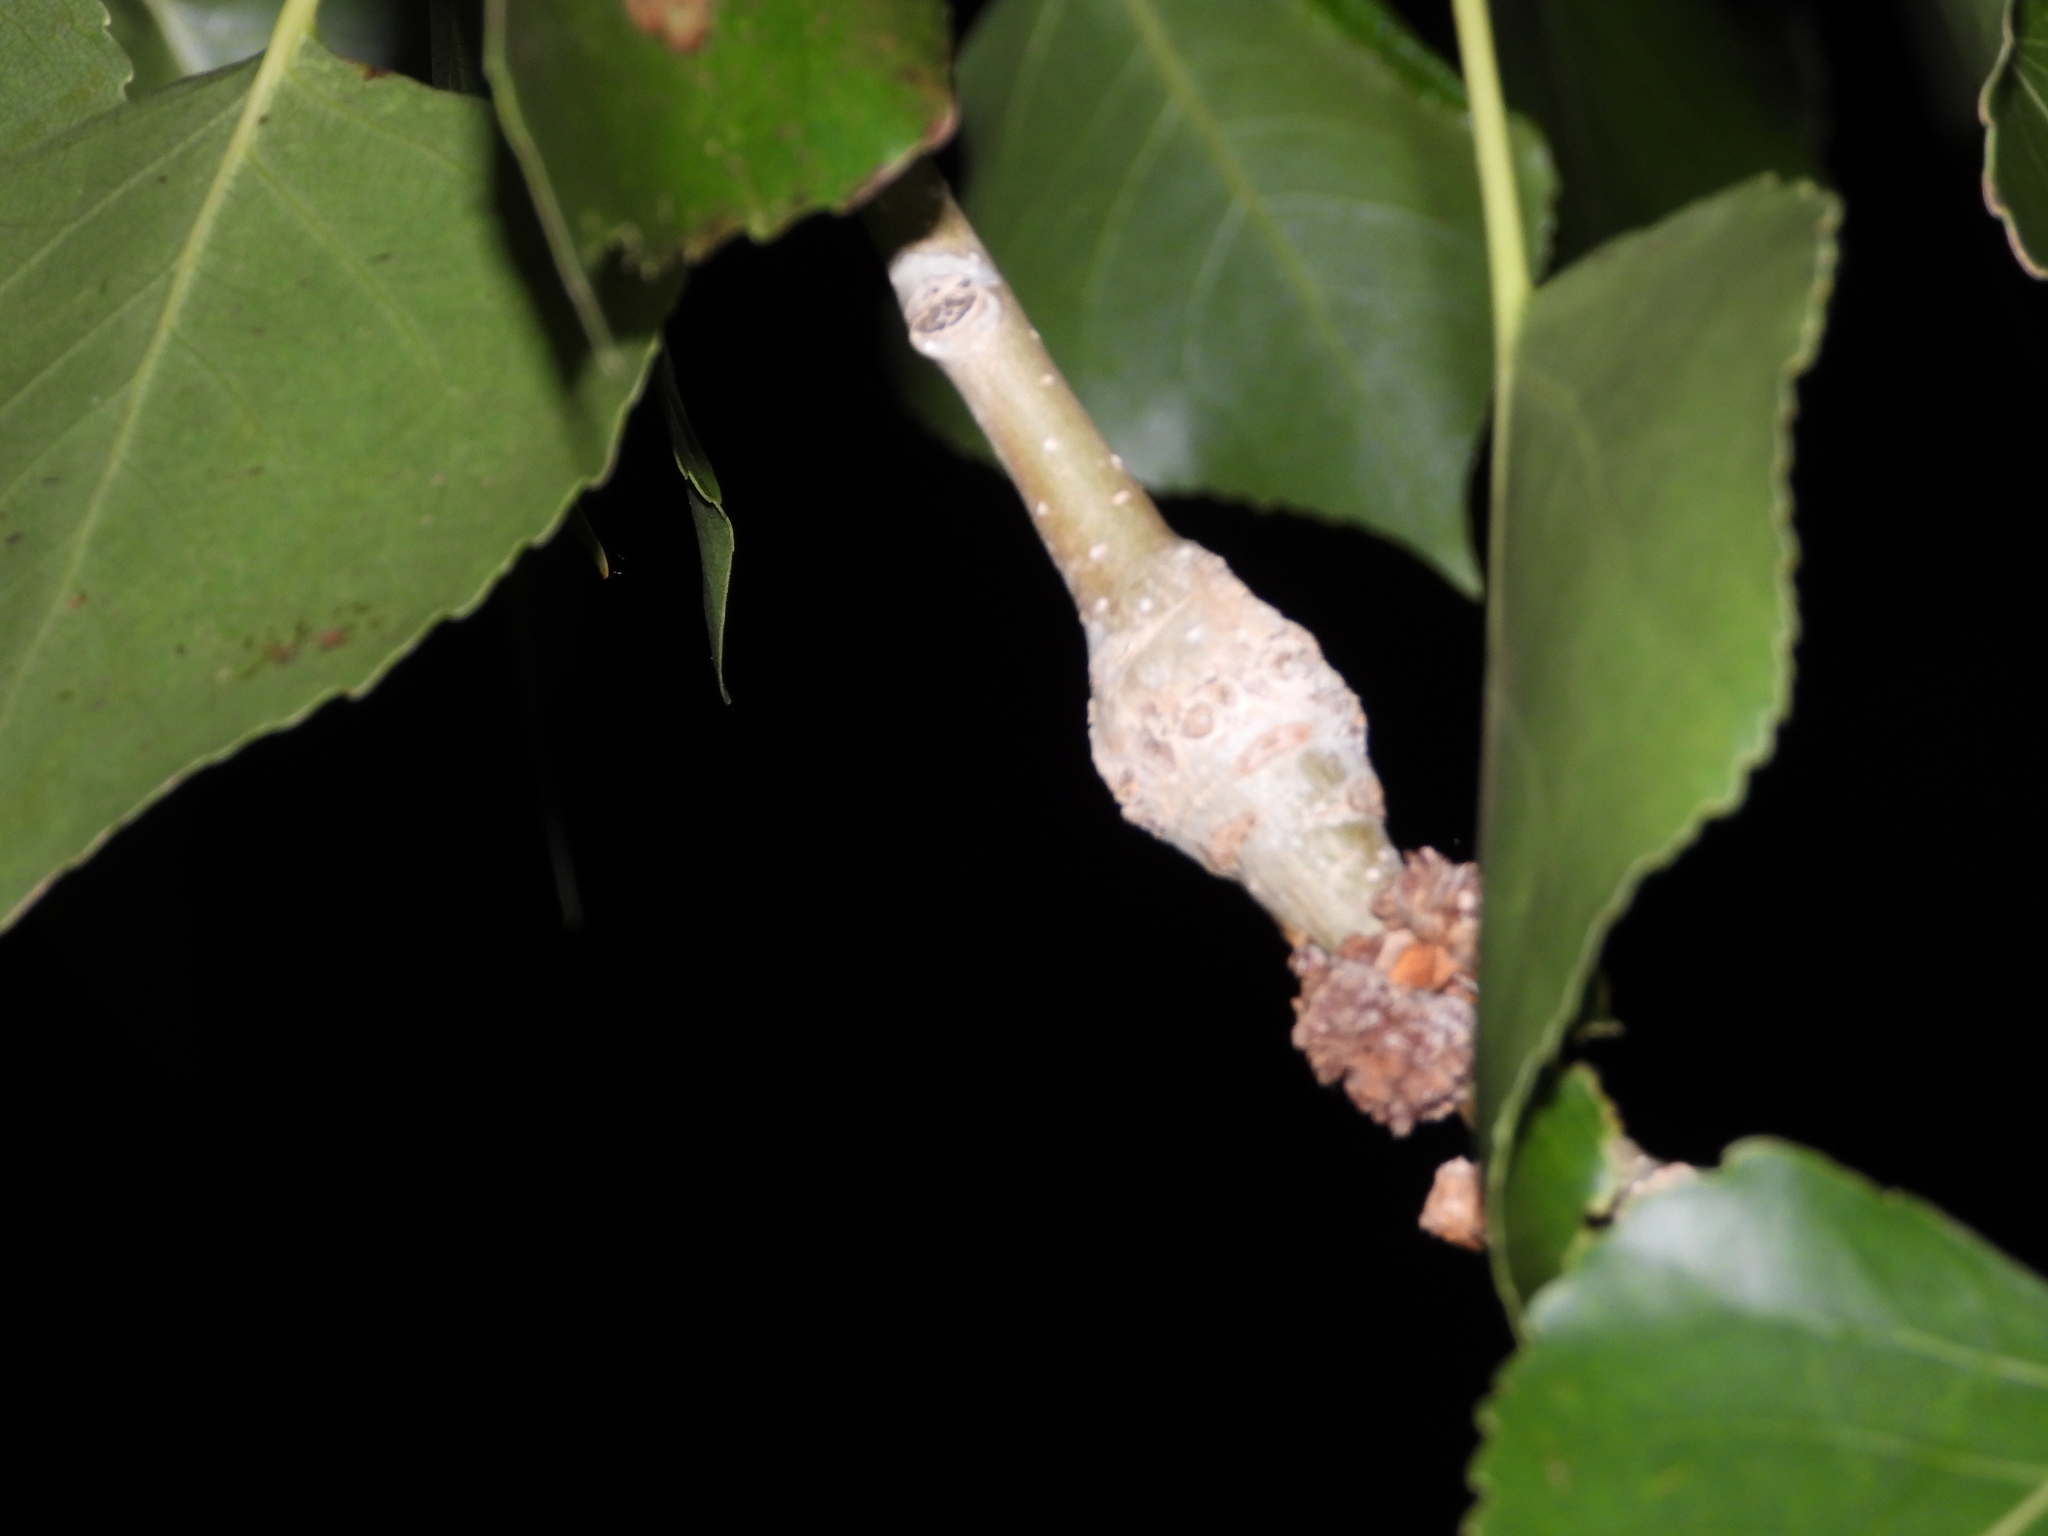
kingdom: Animalia
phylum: Arthropoda
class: Arachnida
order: Trombidiformes
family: Eriophyidae
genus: Aceria
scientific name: Aceria
